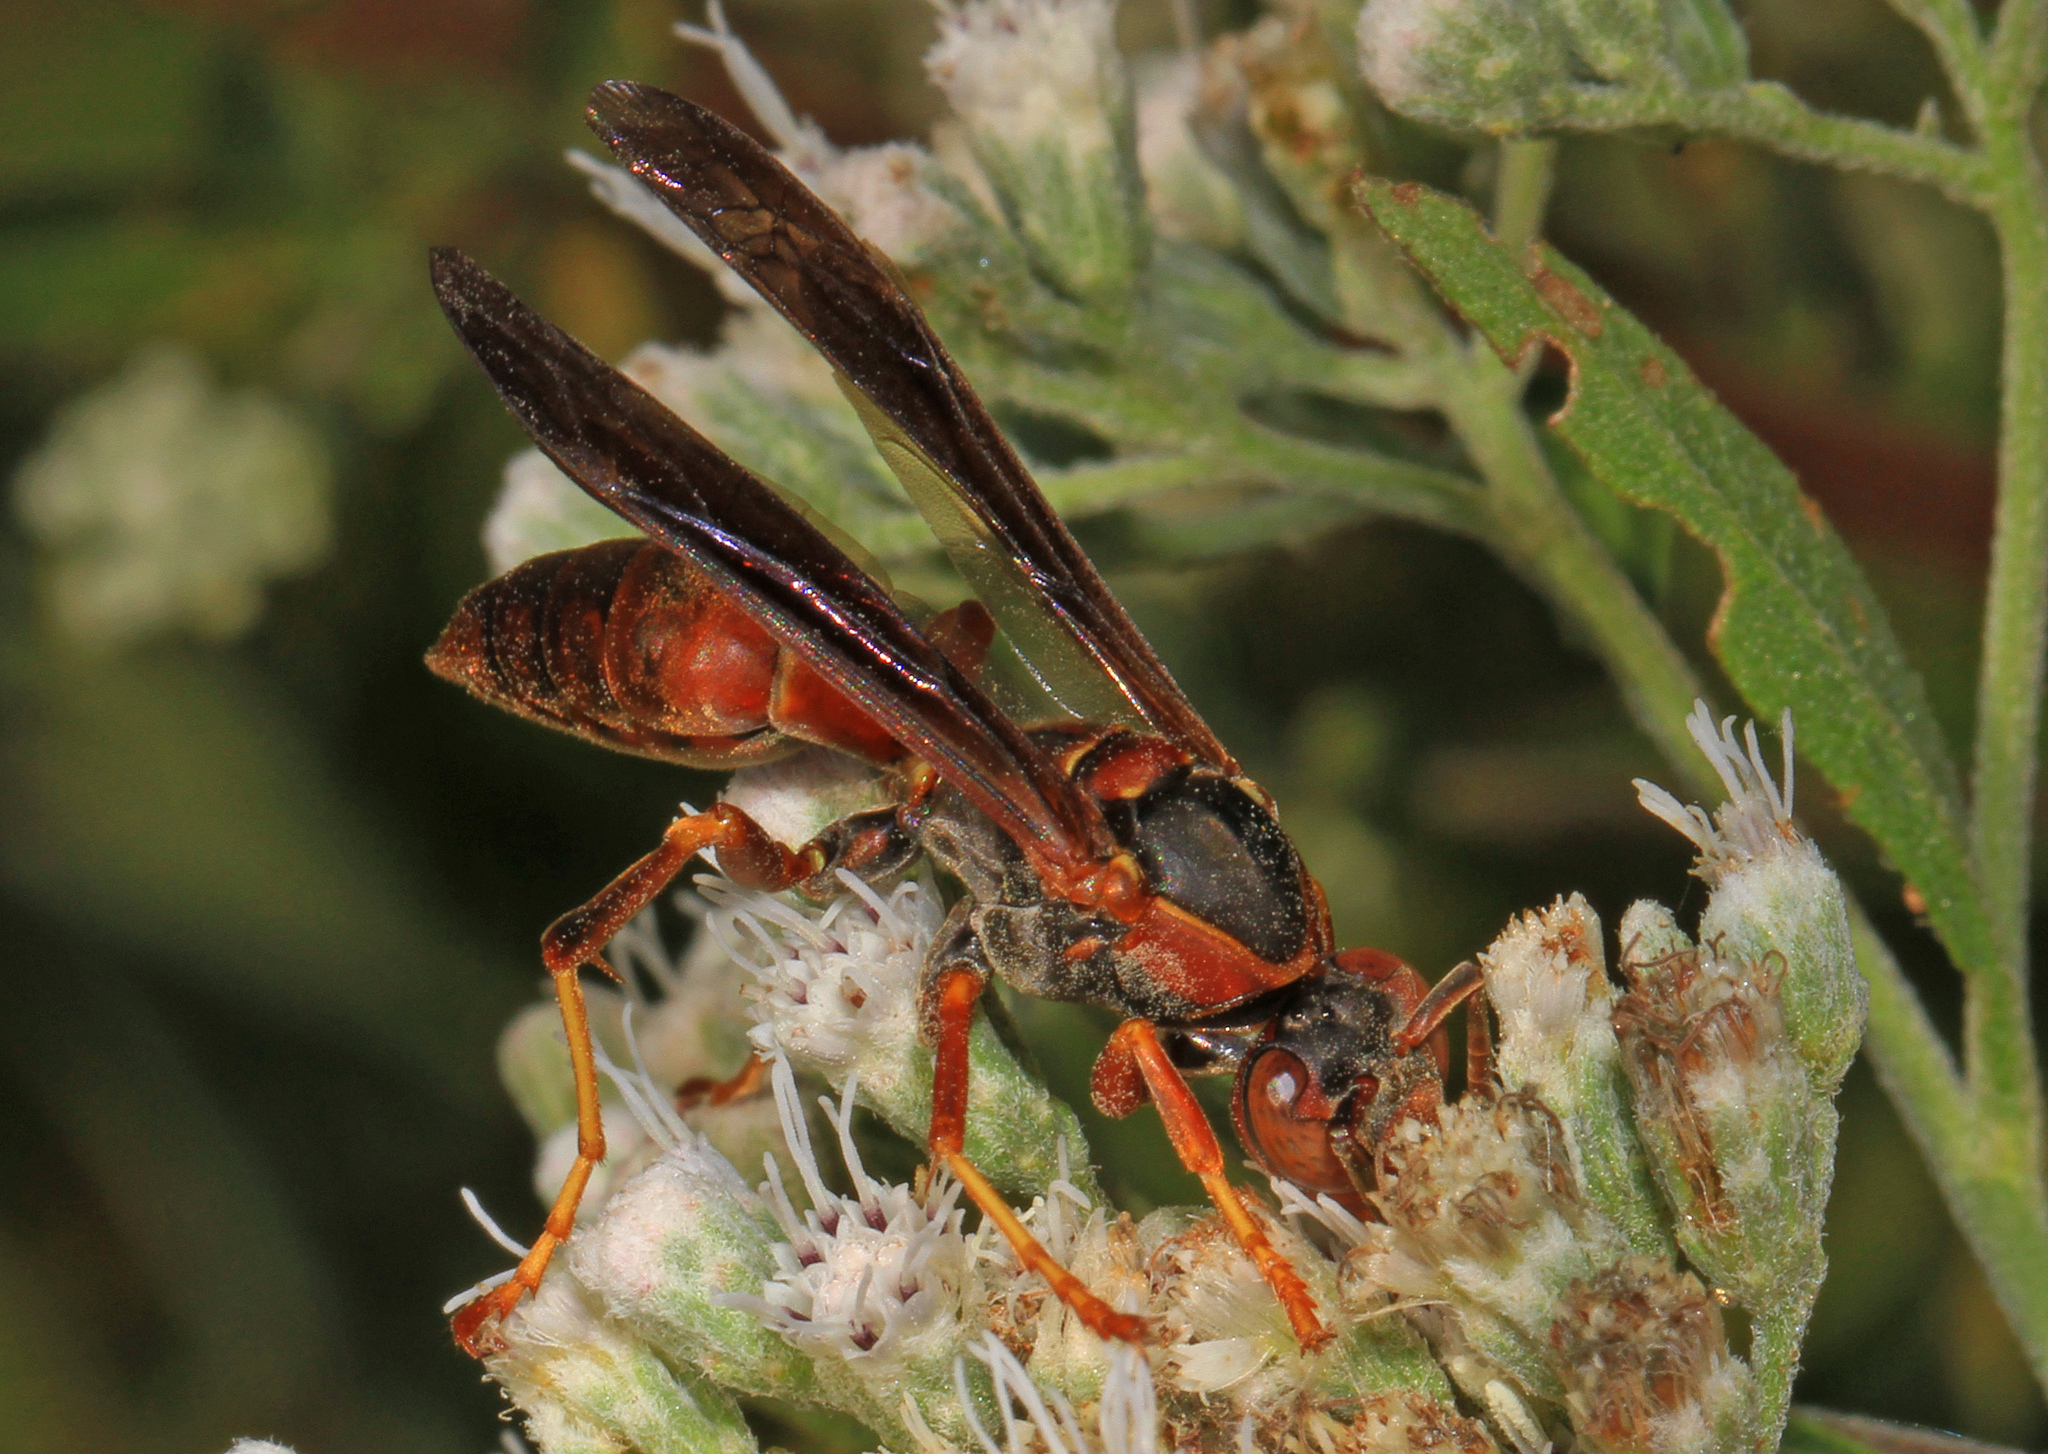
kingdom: Animalia
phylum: Arthropoda
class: Insecta
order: Hymenoptera
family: Eumenidae
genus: Polistes
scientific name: Polistes fuscatus
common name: Dark paper wasp
